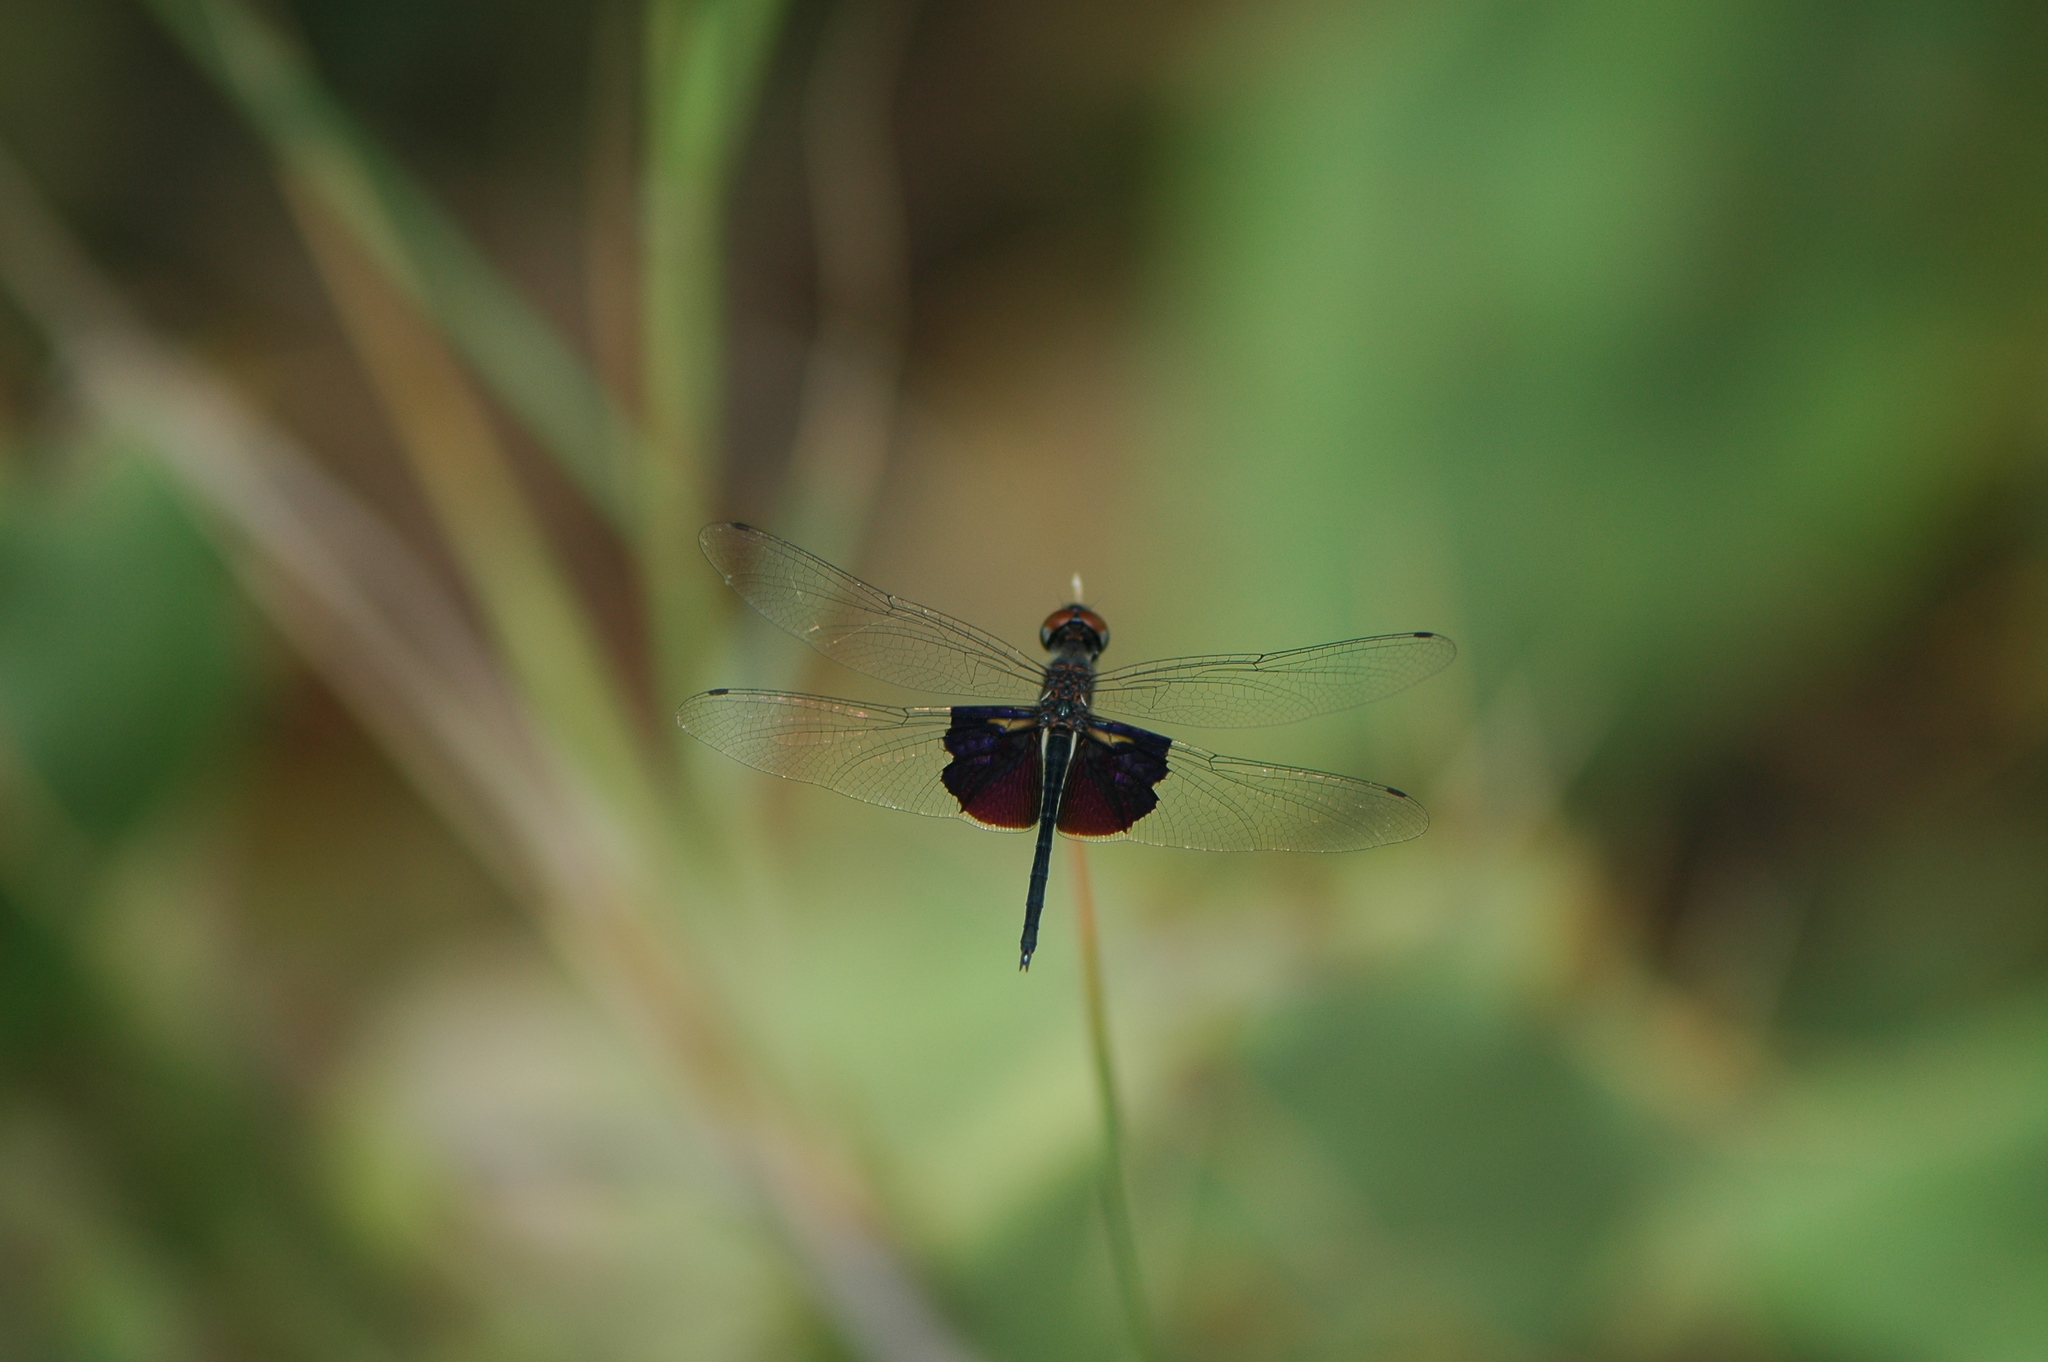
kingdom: Animalia
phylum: Arthropoda
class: Insecta
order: Odonata
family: Libellulidae
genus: Rhyothemis
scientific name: Rhyothemis semihyalina
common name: Phantom flutterer
